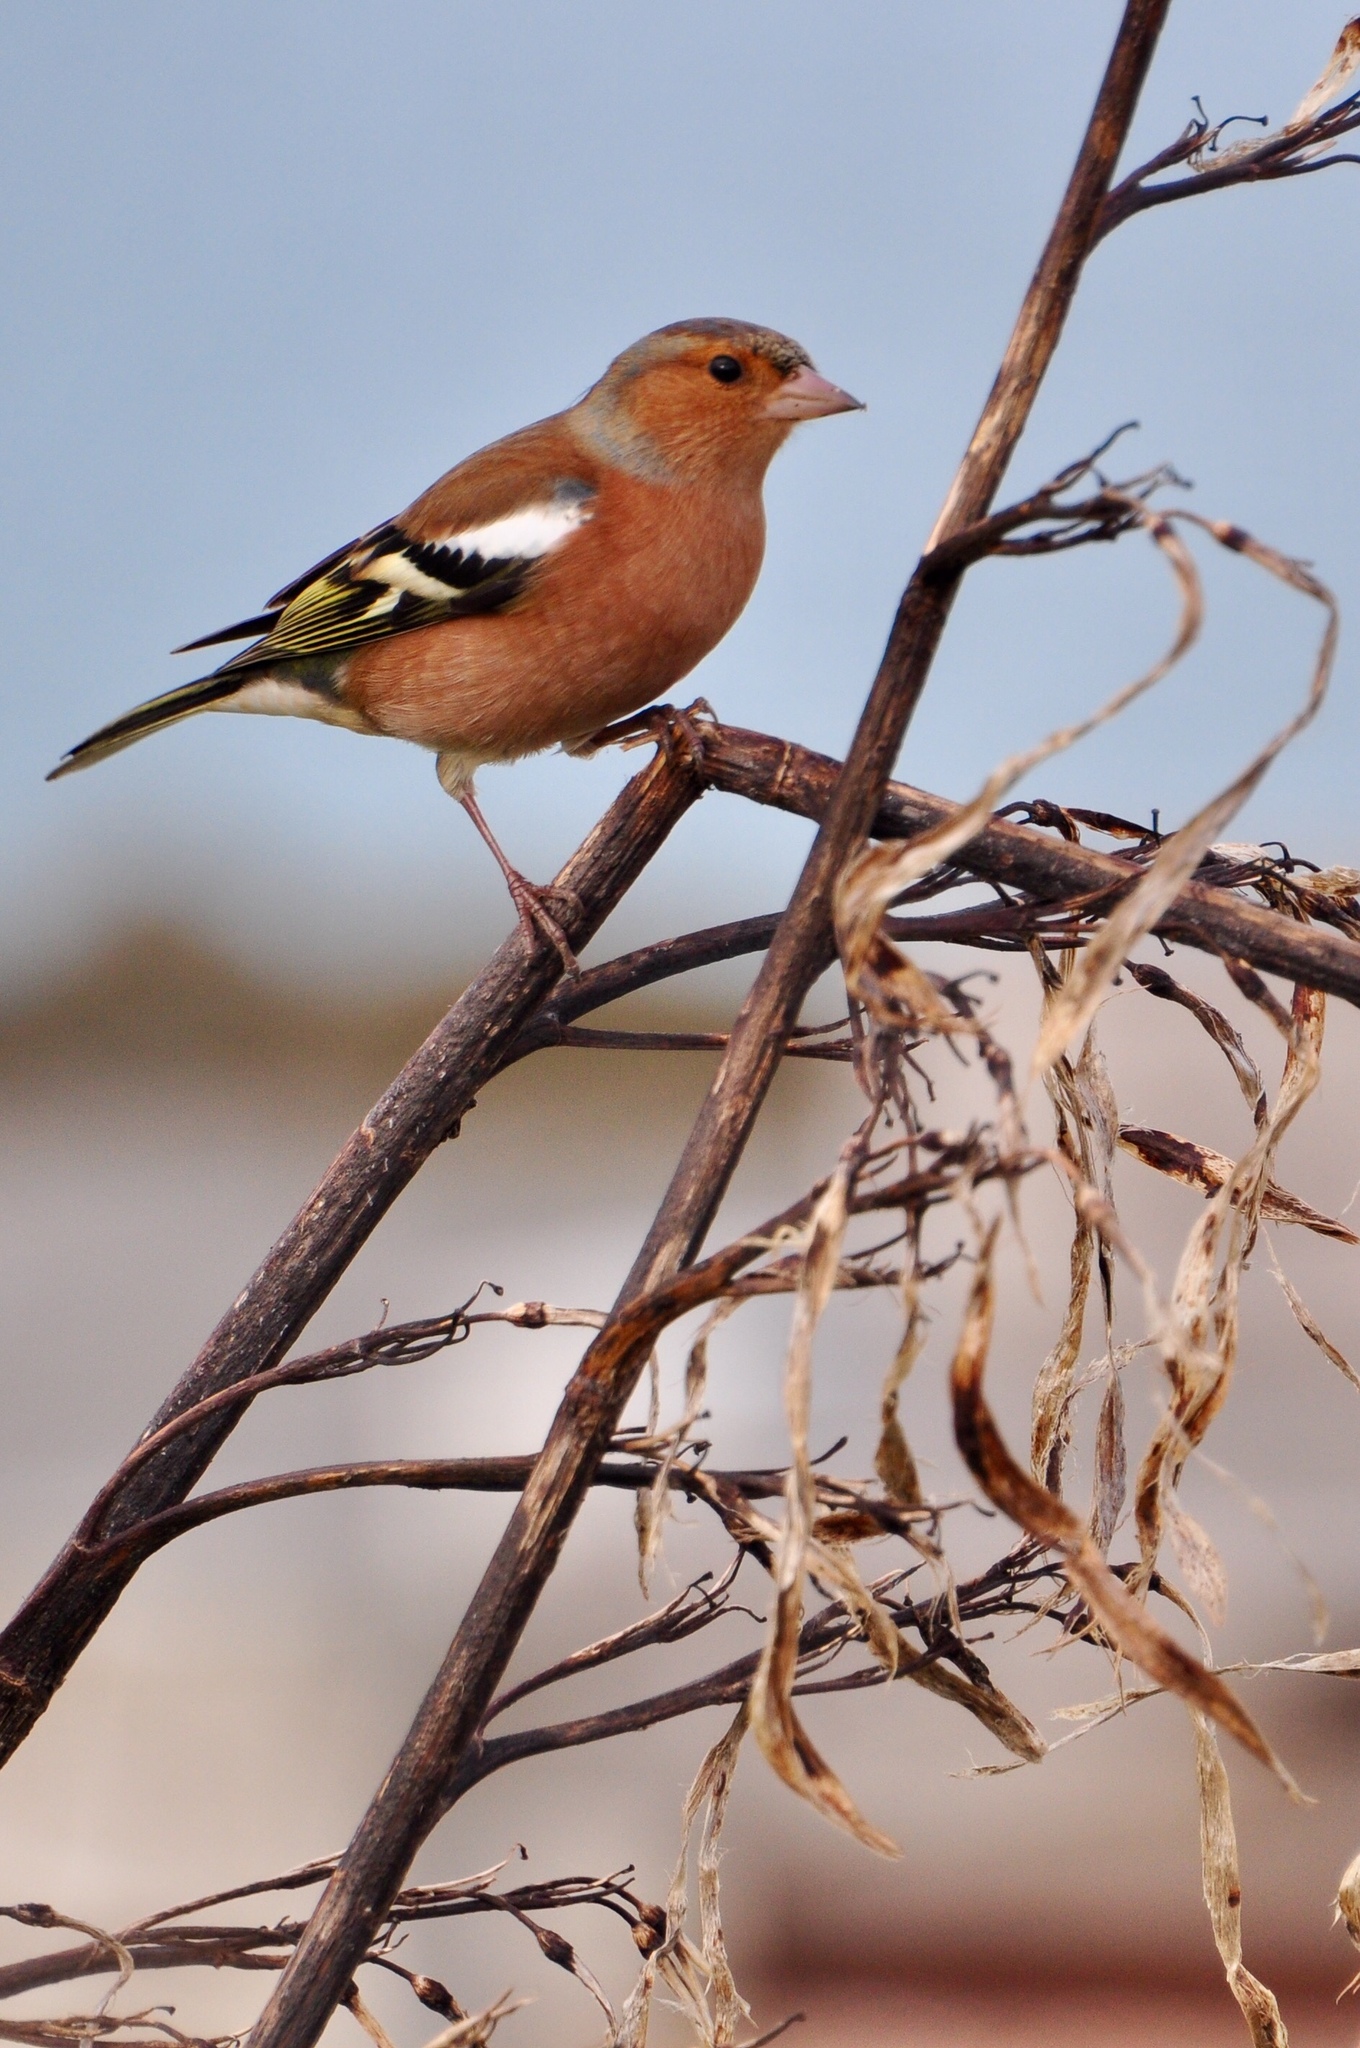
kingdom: Animalia
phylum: Chordata
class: Aves
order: Passeriformes
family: Fringillidae
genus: Fringilla
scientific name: Fringilla coelebs
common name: Common chaffinch
